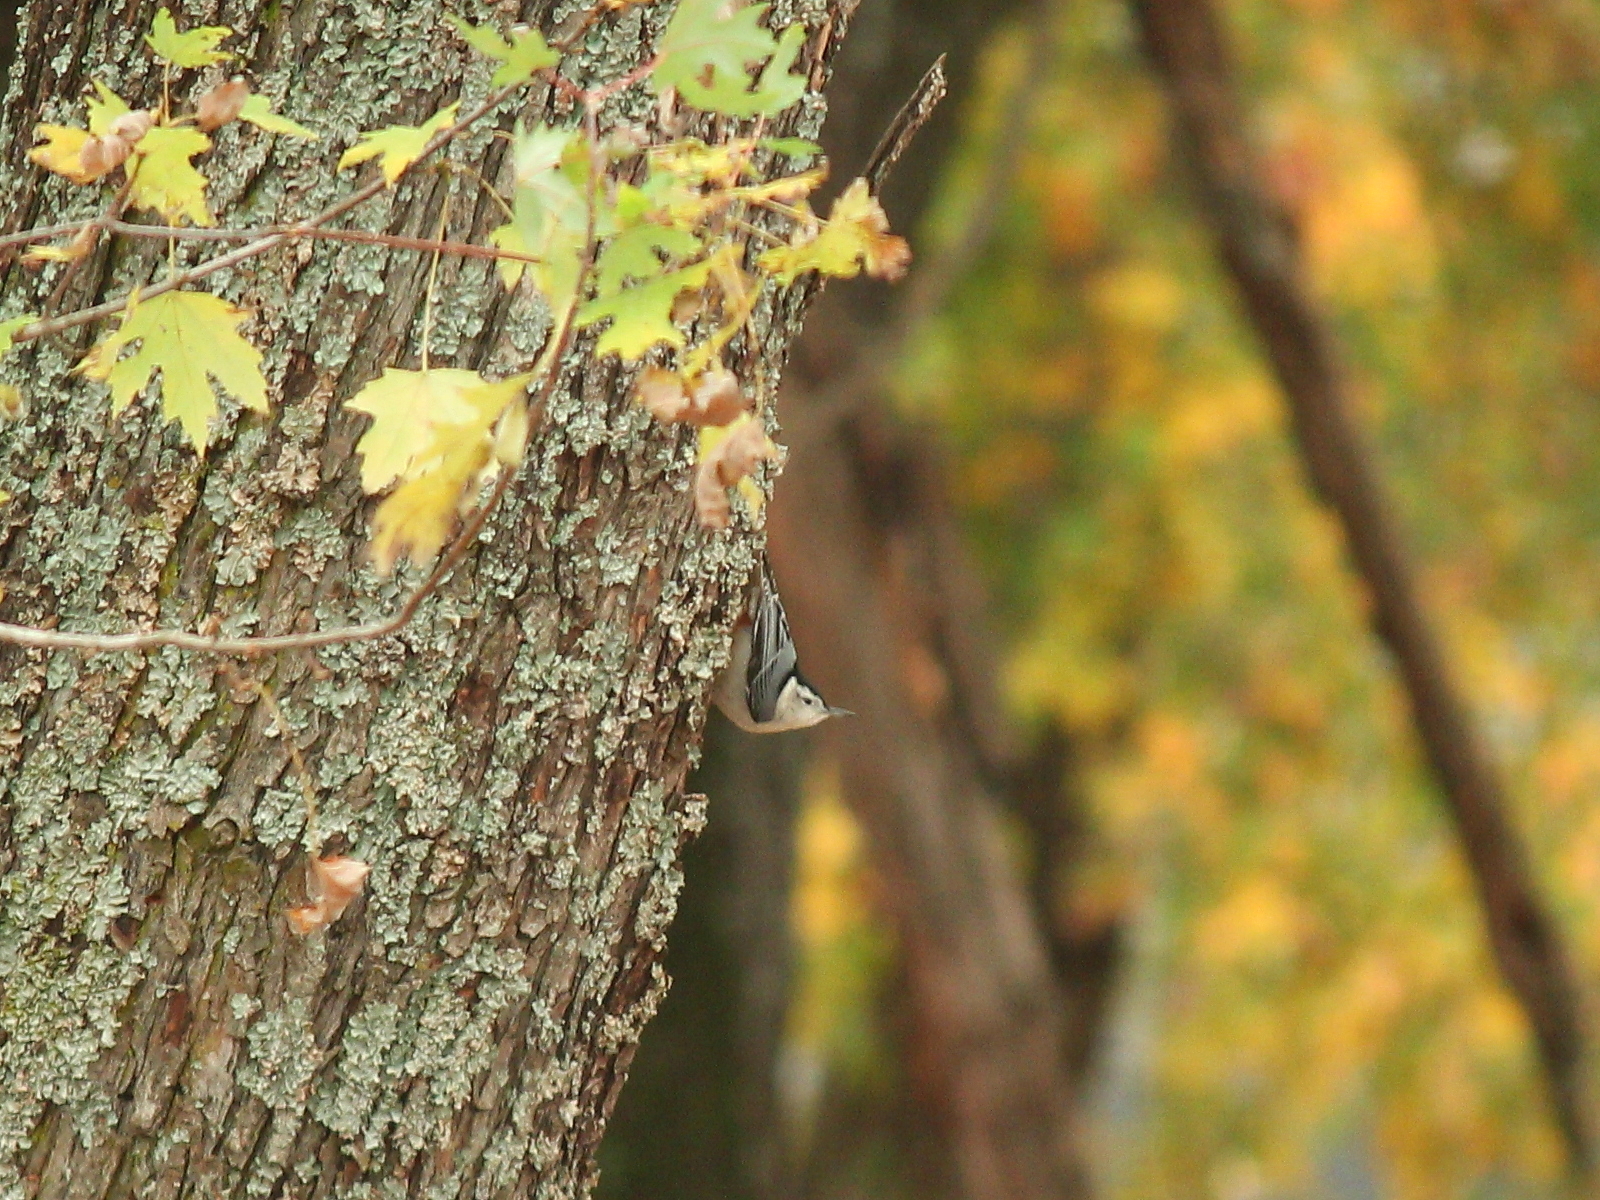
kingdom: Animalia
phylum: Chordata
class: Aves
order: Passeriformes
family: Sittidae
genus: Sitta
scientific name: Sitta carolinensis
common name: White-breasted nuthatch
